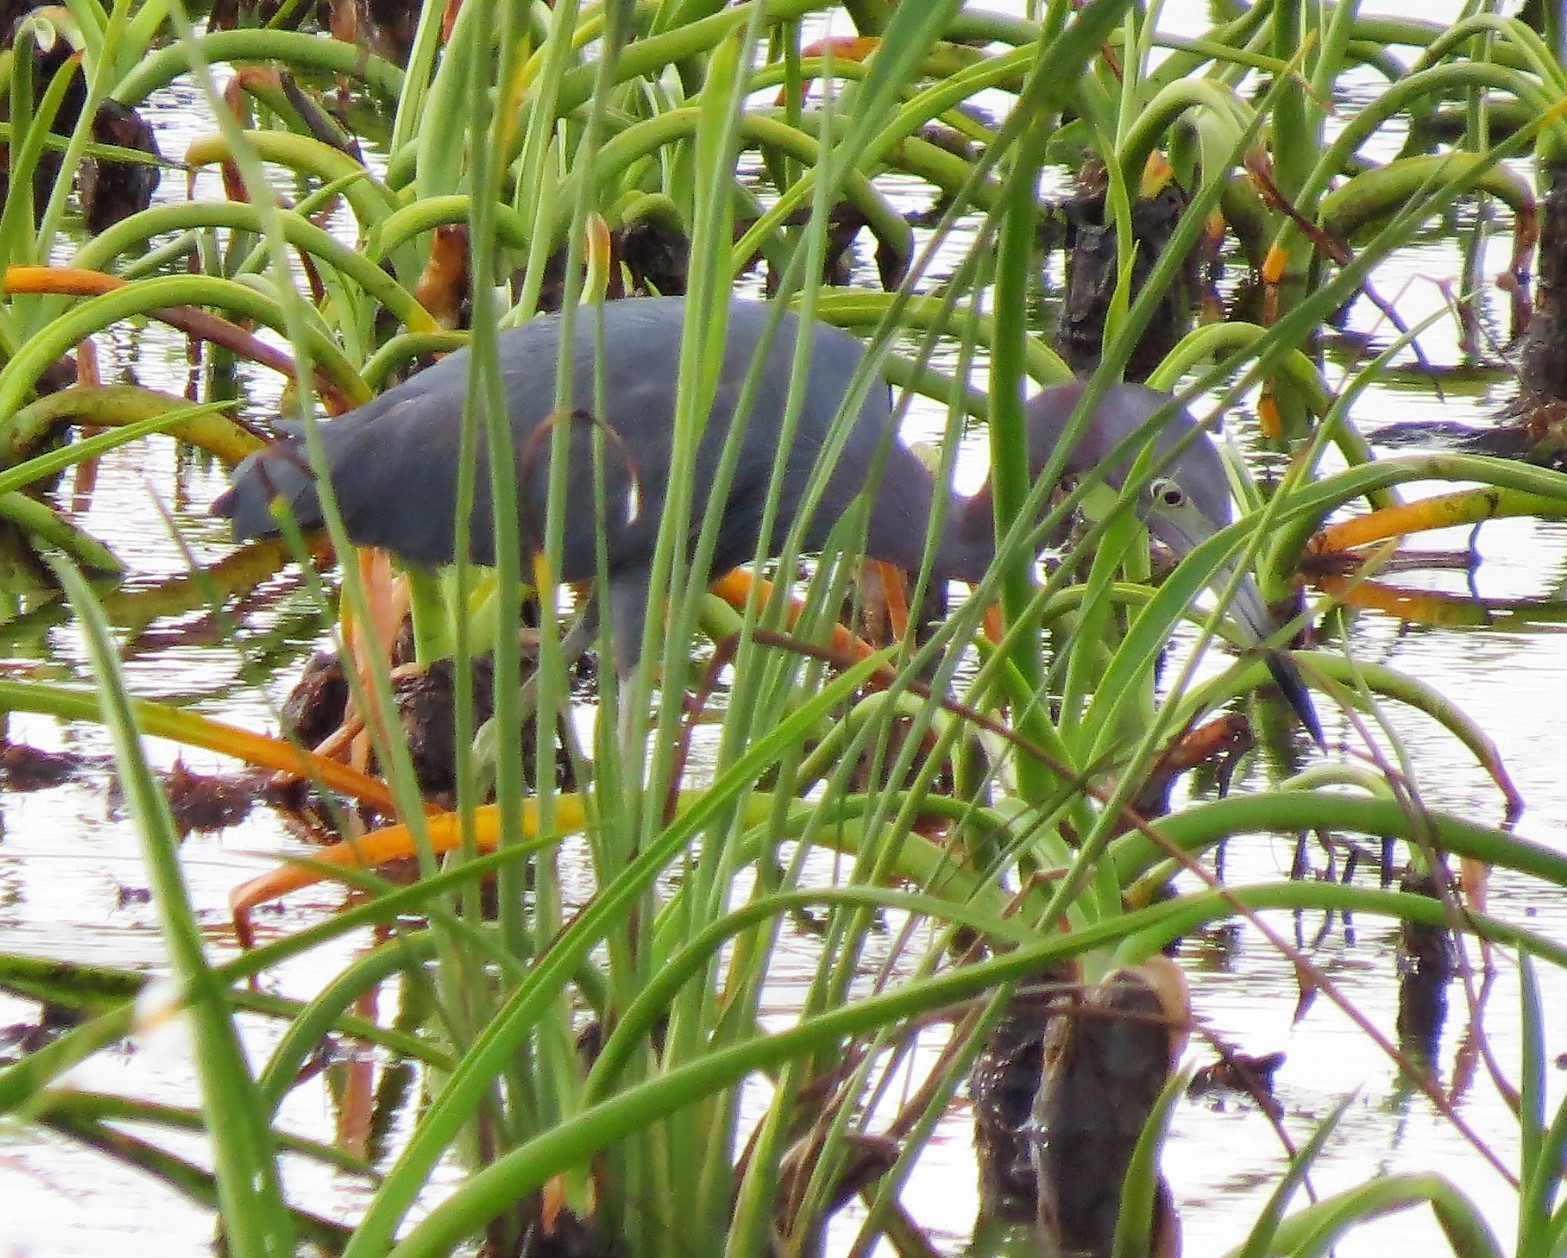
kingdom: Animalia
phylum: Chordata
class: Aves
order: Pelecaniformes
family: Ardeidae
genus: Egretta
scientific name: Egretta caerulea
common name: Little blue heron
